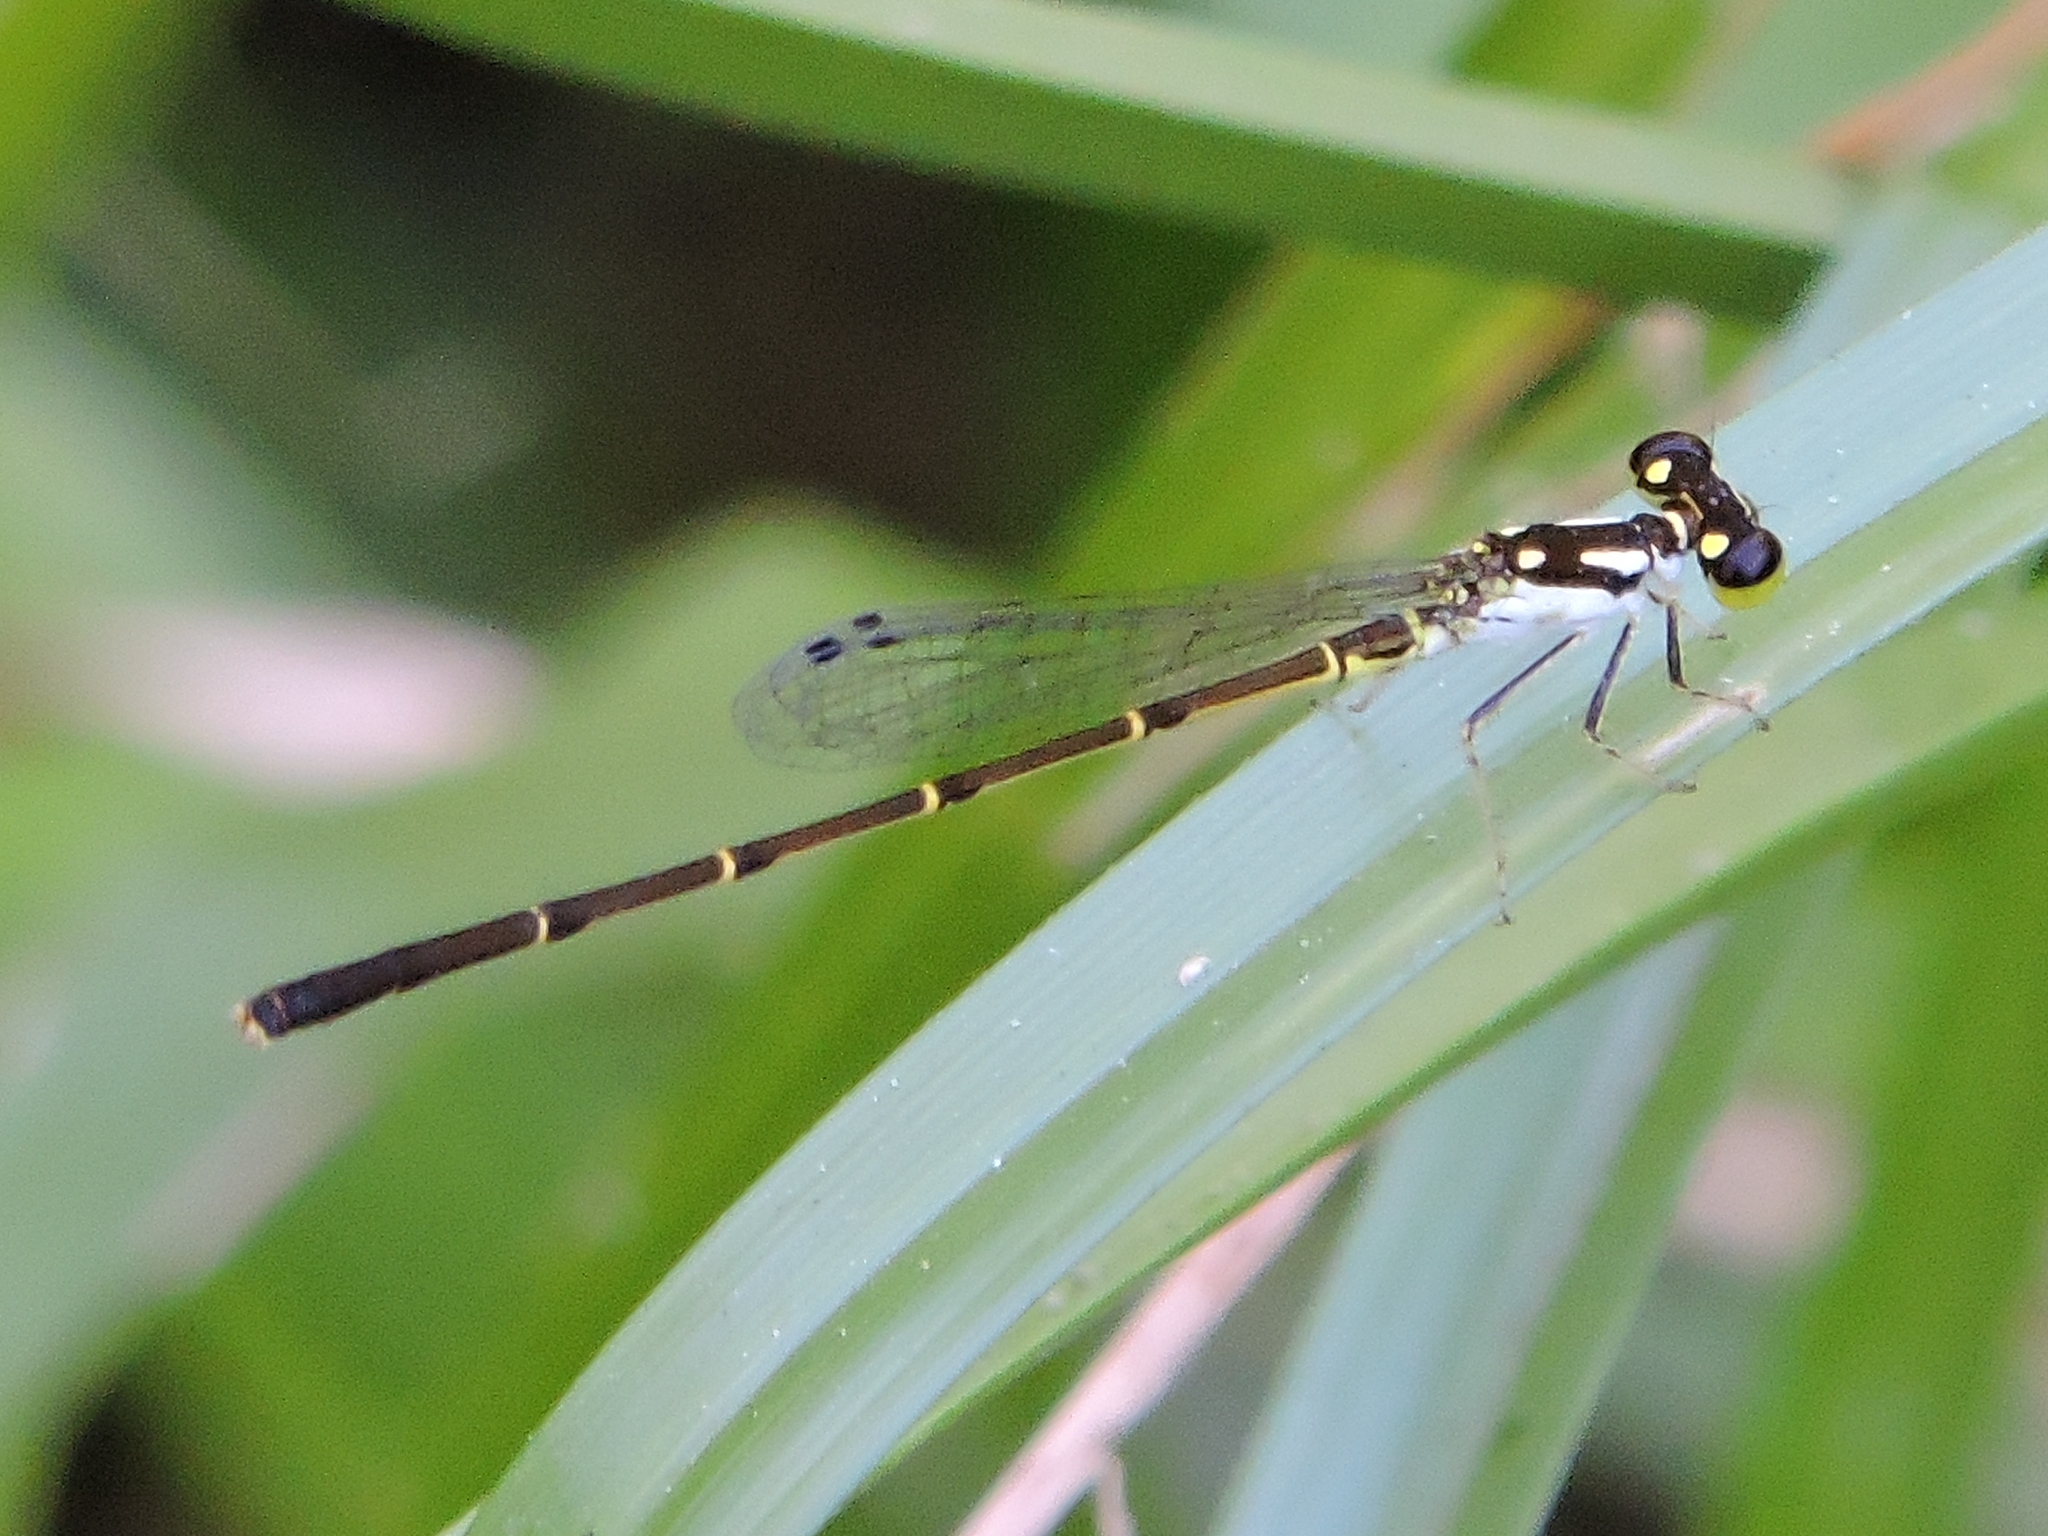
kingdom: Animalia
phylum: Arthropoda
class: Insecta
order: Odonata
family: Coenagrionidae
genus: Ischnura
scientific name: Ischnura posita
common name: Fragile forktail
